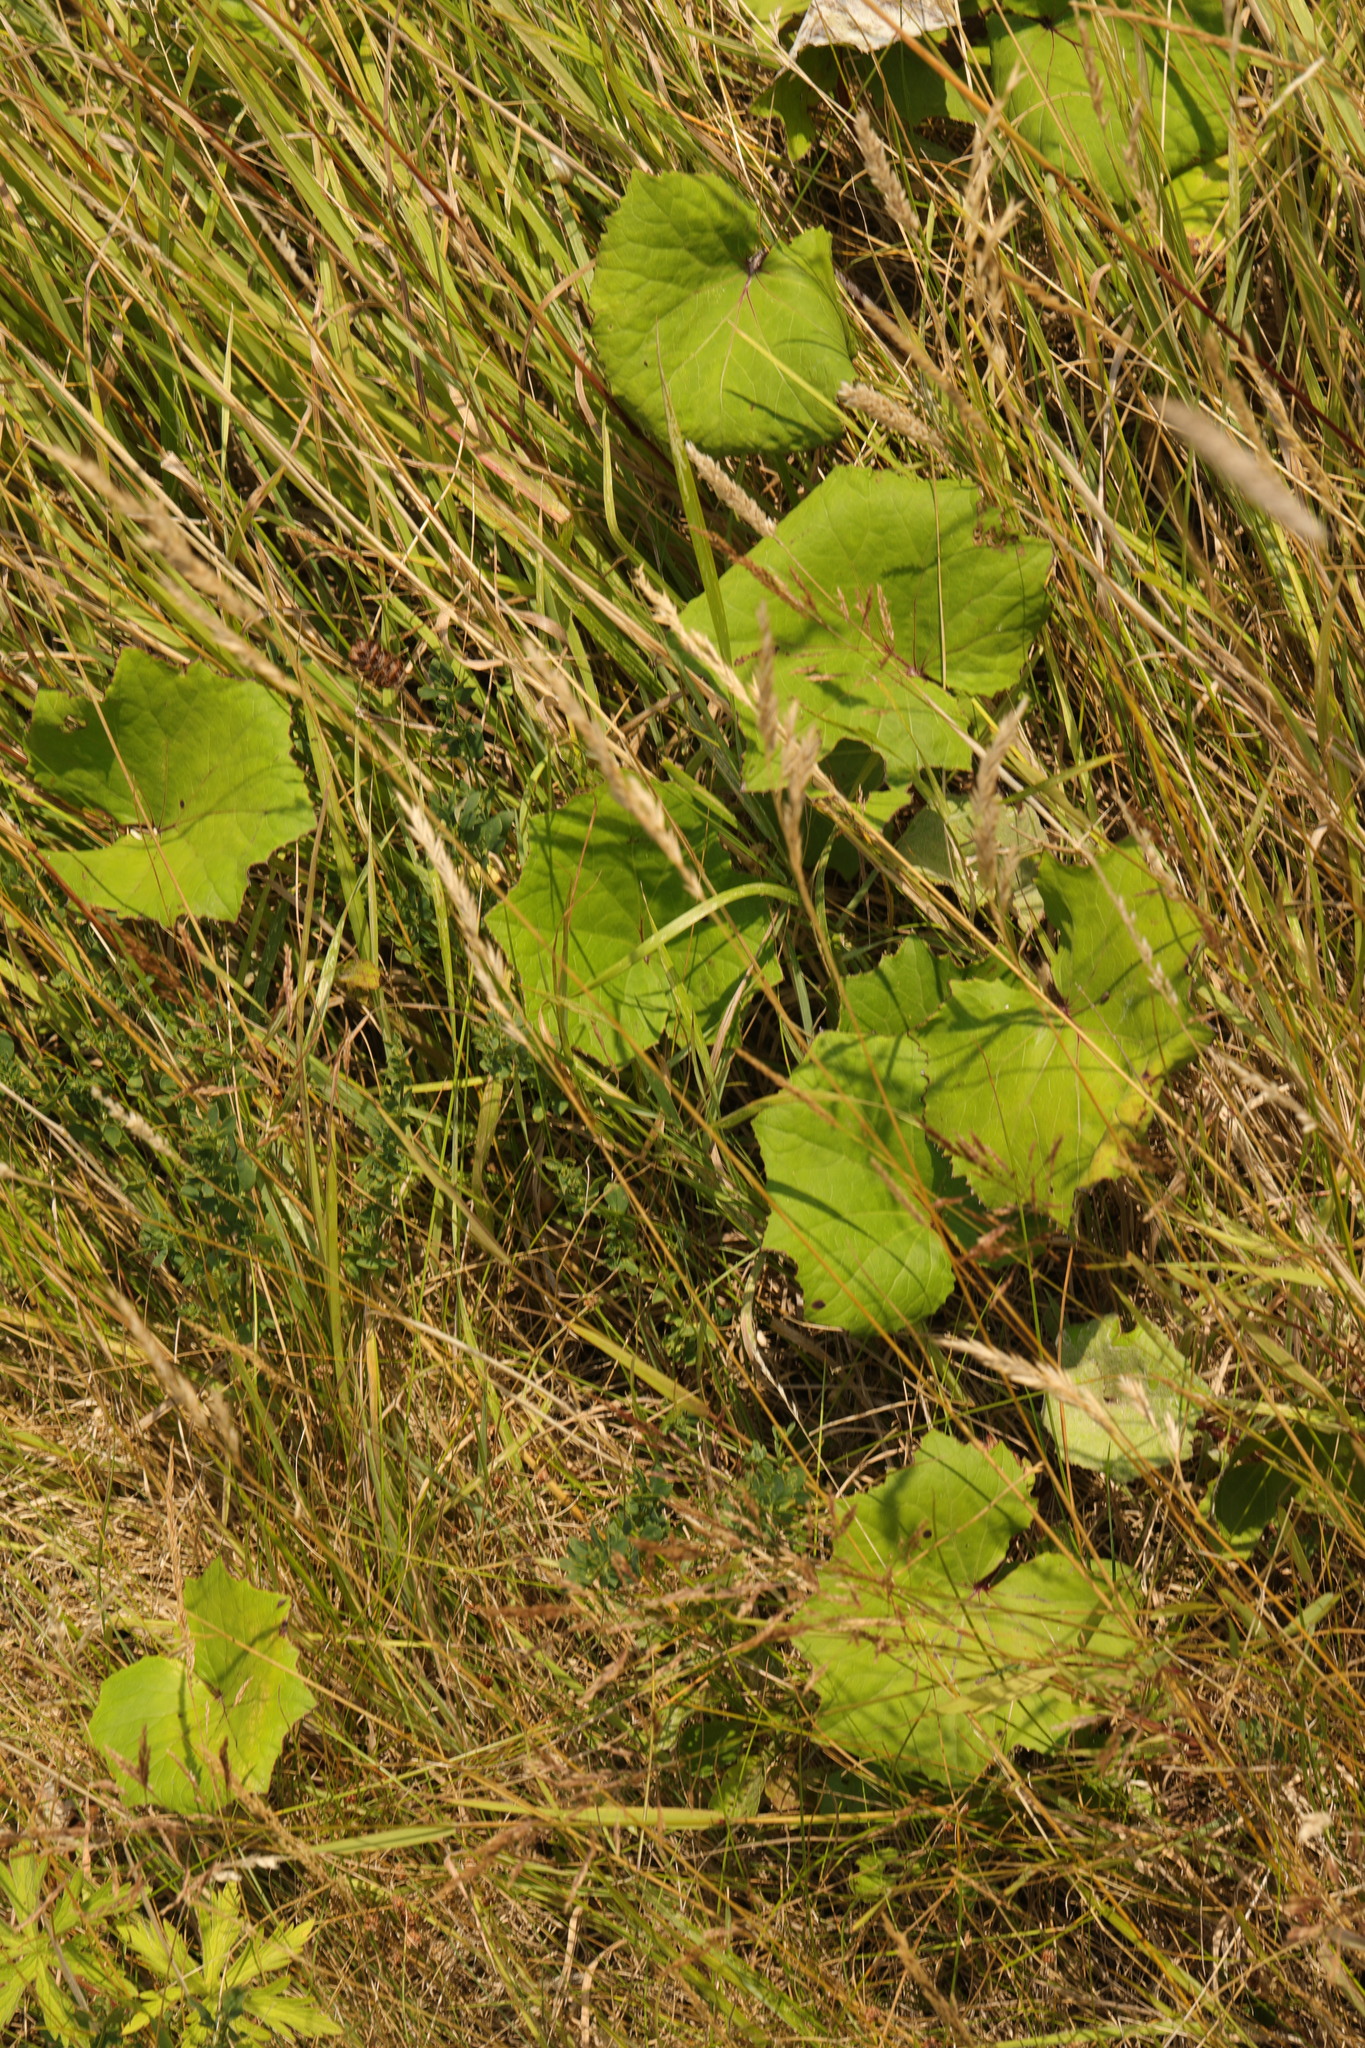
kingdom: Plantae
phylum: Tracheophyta
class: Magnoliopsida
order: Asterales
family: Asteraceae
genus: Tussilago
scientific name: Tussilago farfara
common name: Coltsfoot
